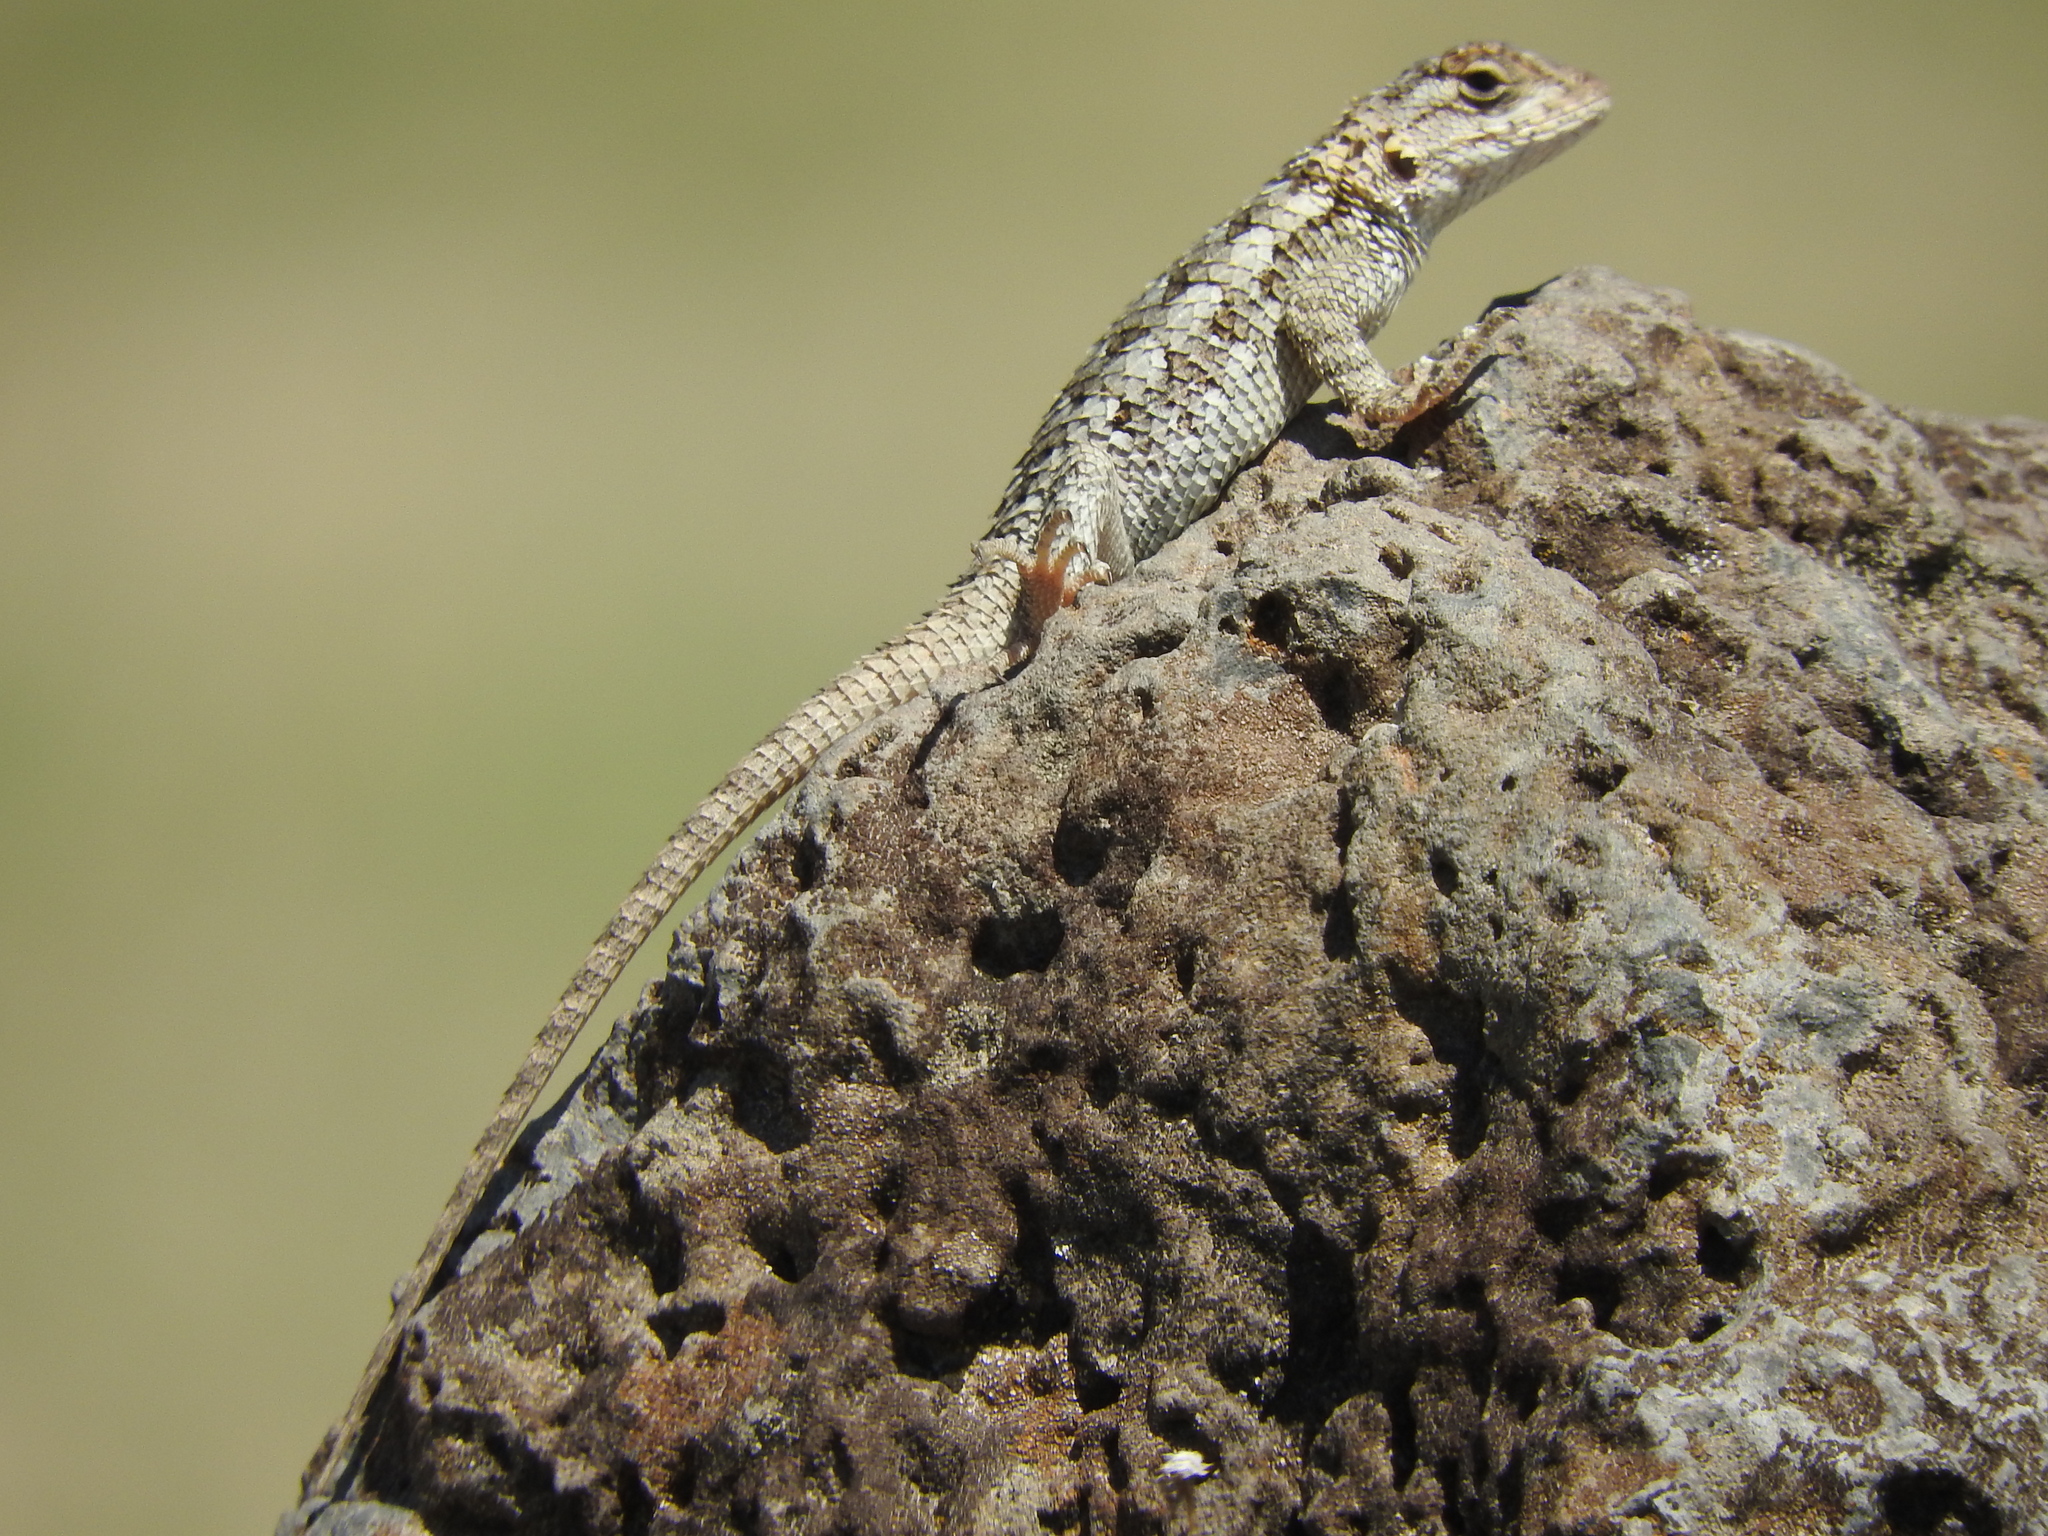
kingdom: Animalia
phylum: Chordata
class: Squamata
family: Phrynosomatidae
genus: Sceloporus
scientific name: Sceloporus spinosus
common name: Blue-spotted spiny lizard [caeruleopunctatus]
